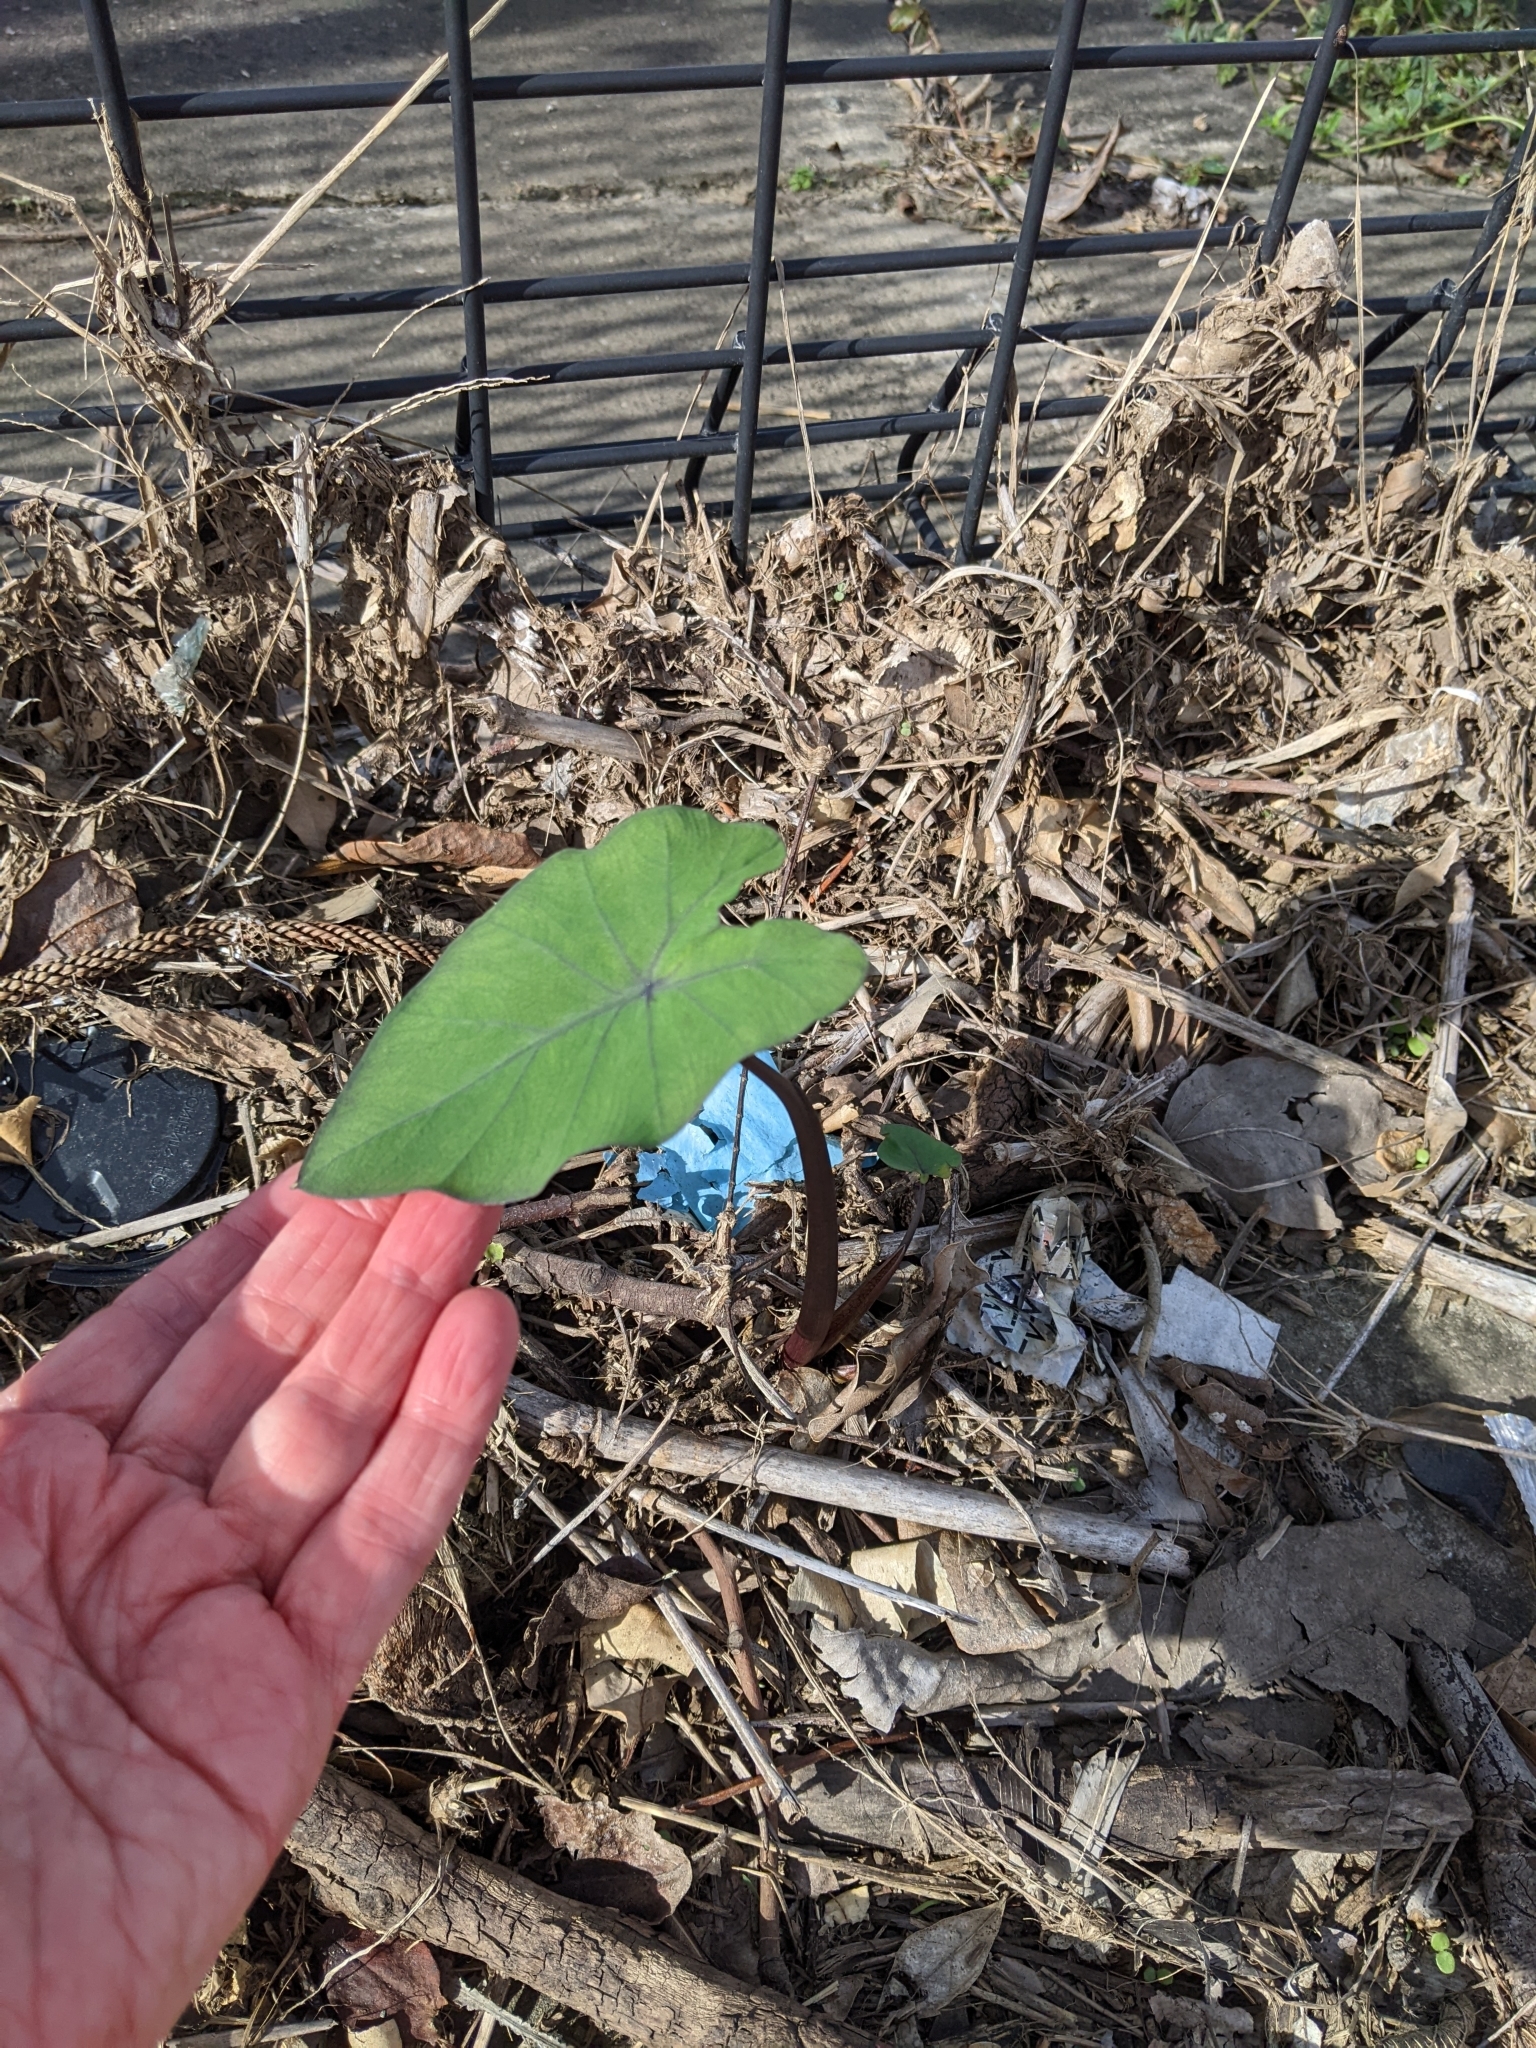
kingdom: Plantae
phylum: Tracheophyta
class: Liliopsida
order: Alismatales
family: Araceae
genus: Colocasia
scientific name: Colocasia esculenta
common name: Taro
